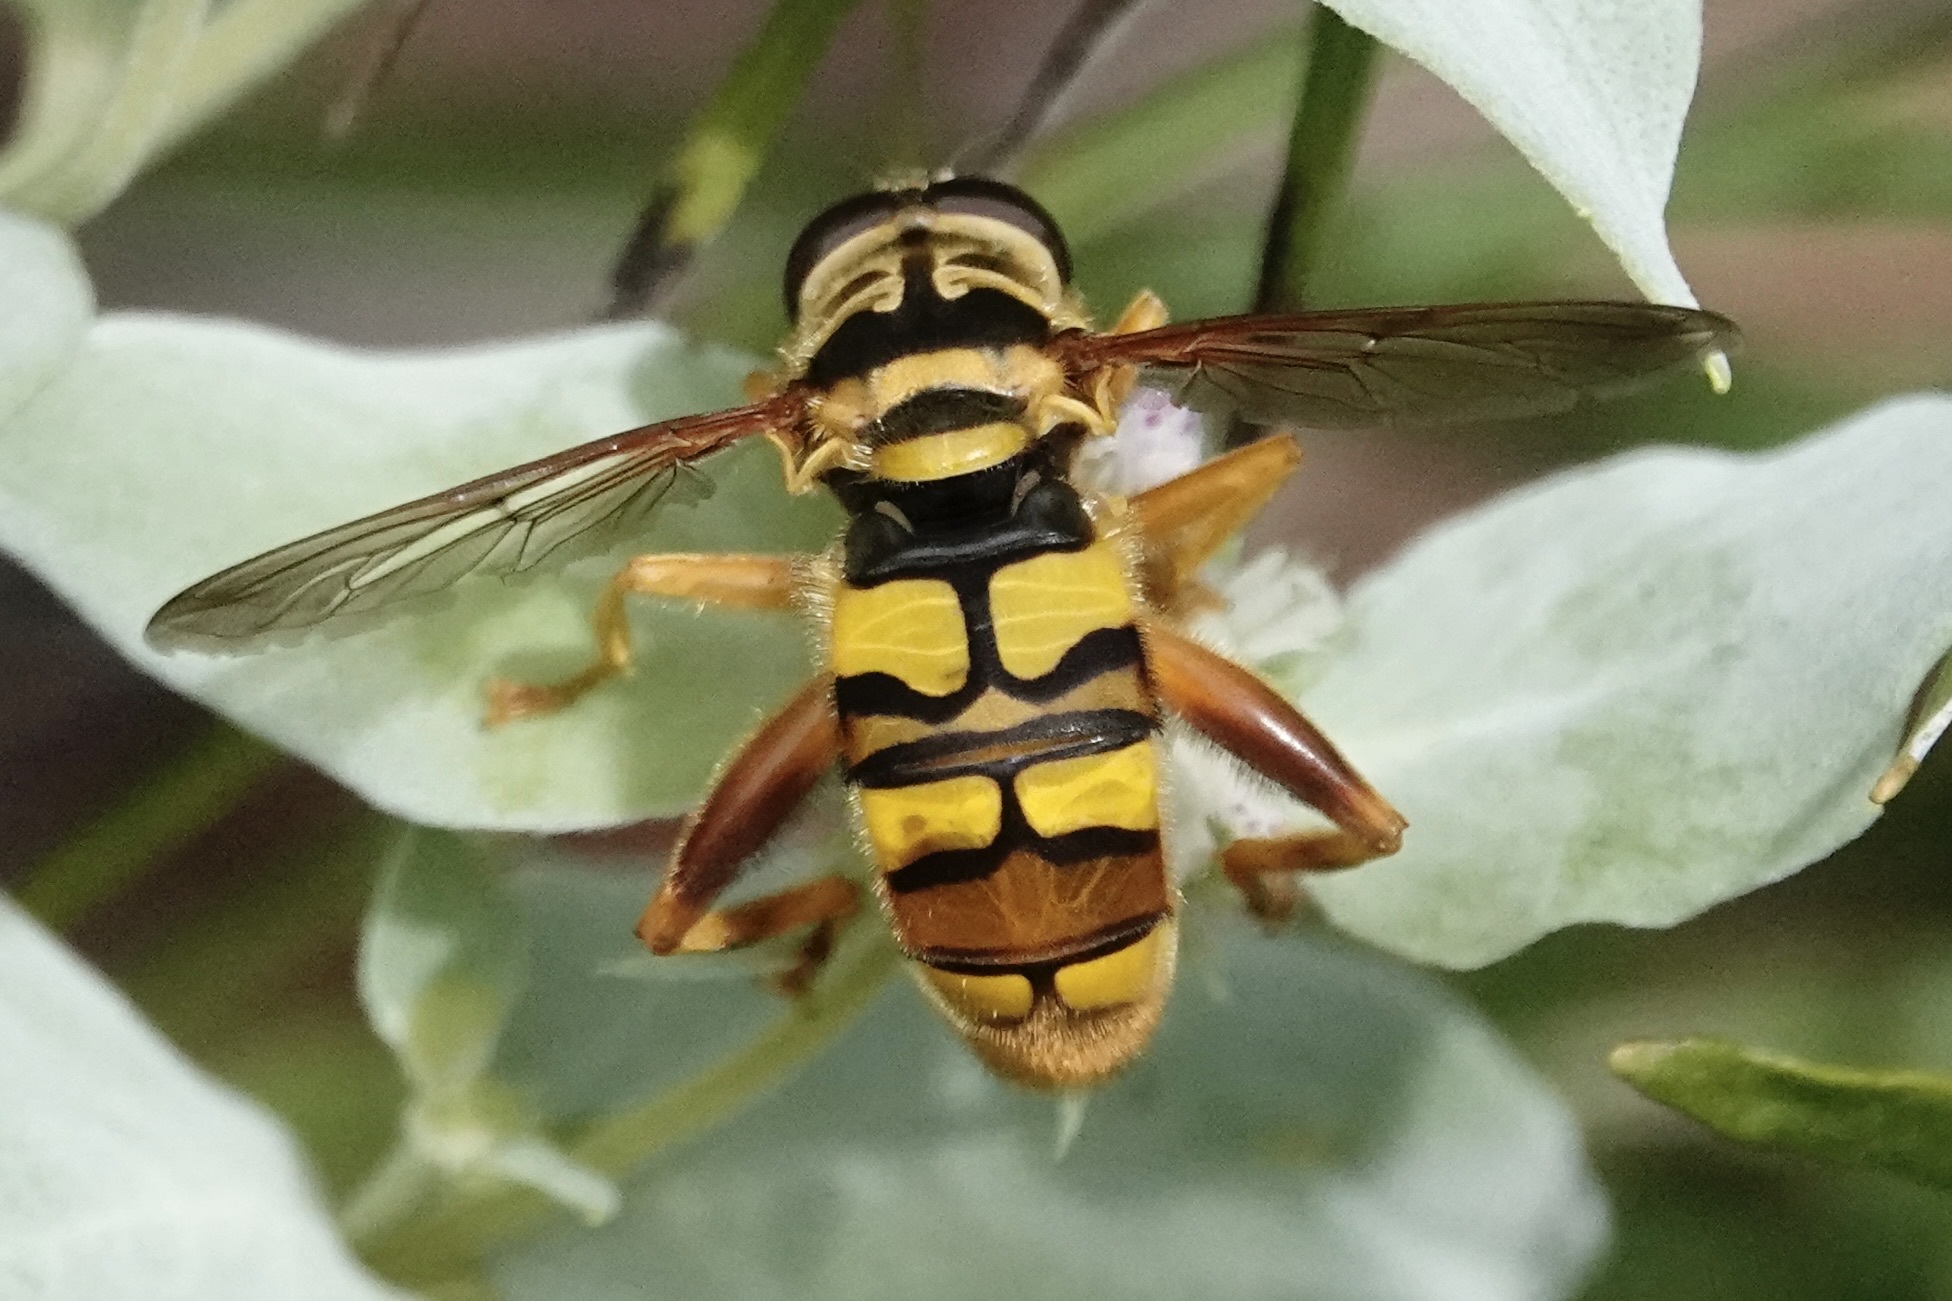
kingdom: Animalia
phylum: Arthropoda
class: Insecta
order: Diptera
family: Syrphidae
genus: Milesia
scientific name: Milesia virginiensis
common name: Virginia giant
